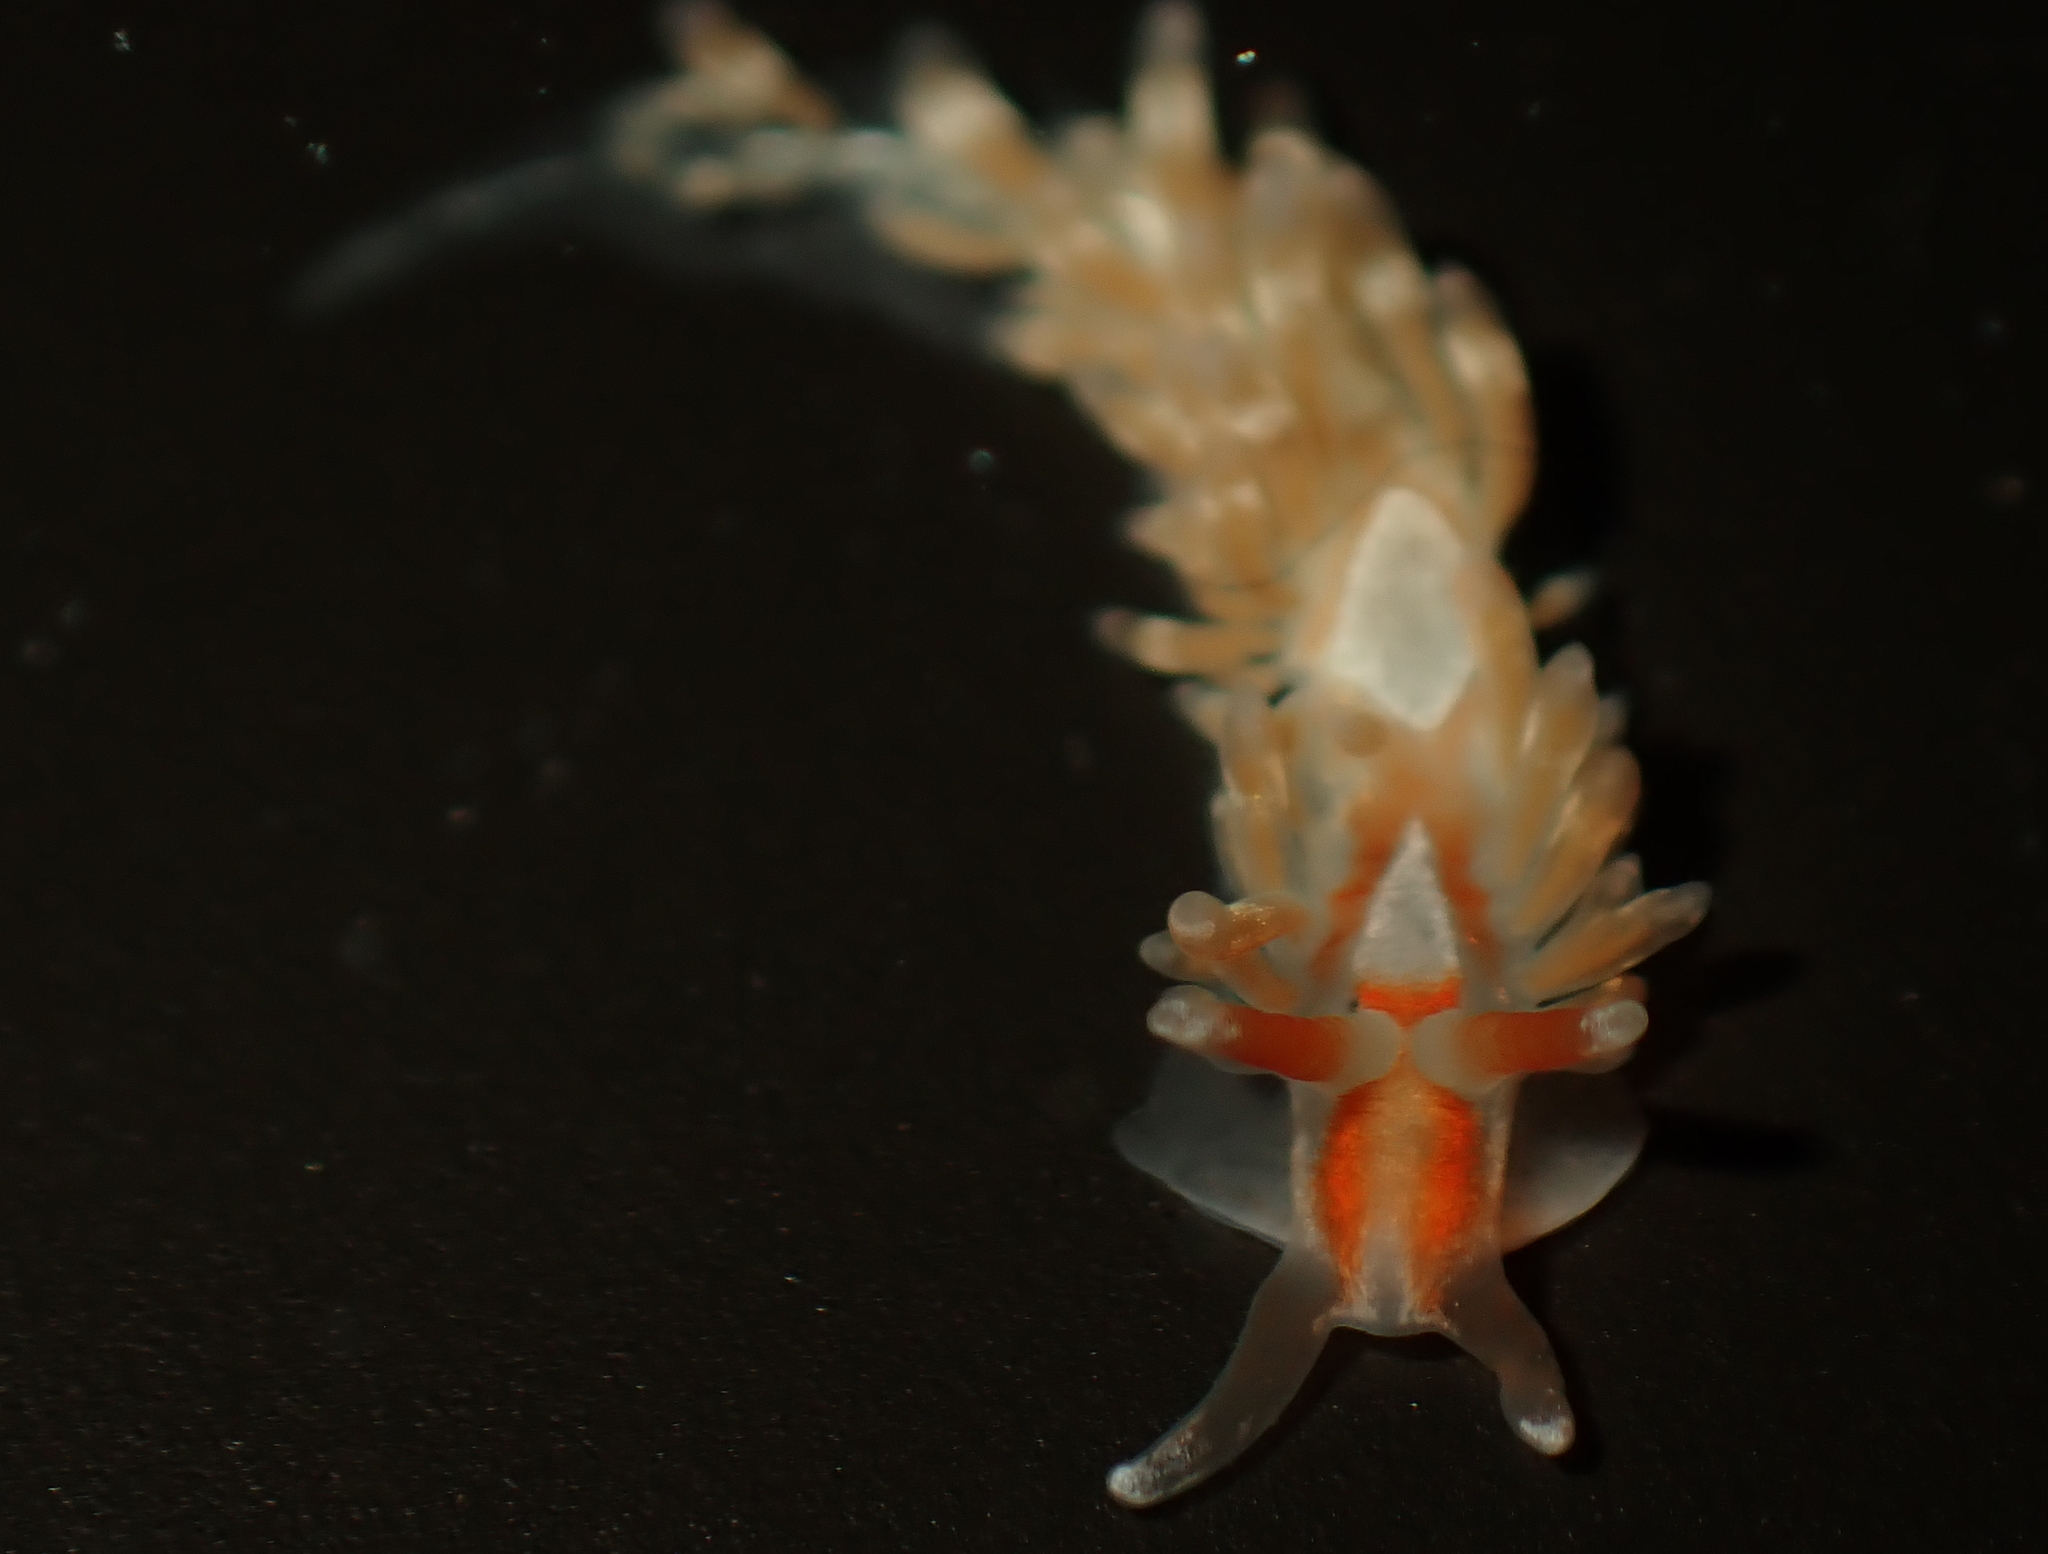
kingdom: Animalia
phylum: Mollusca
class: Gastropoda
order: Nudibranchia
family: Aeolidiidae
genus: Anteaeolidiella
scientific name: Anteaeolidiella lurana
